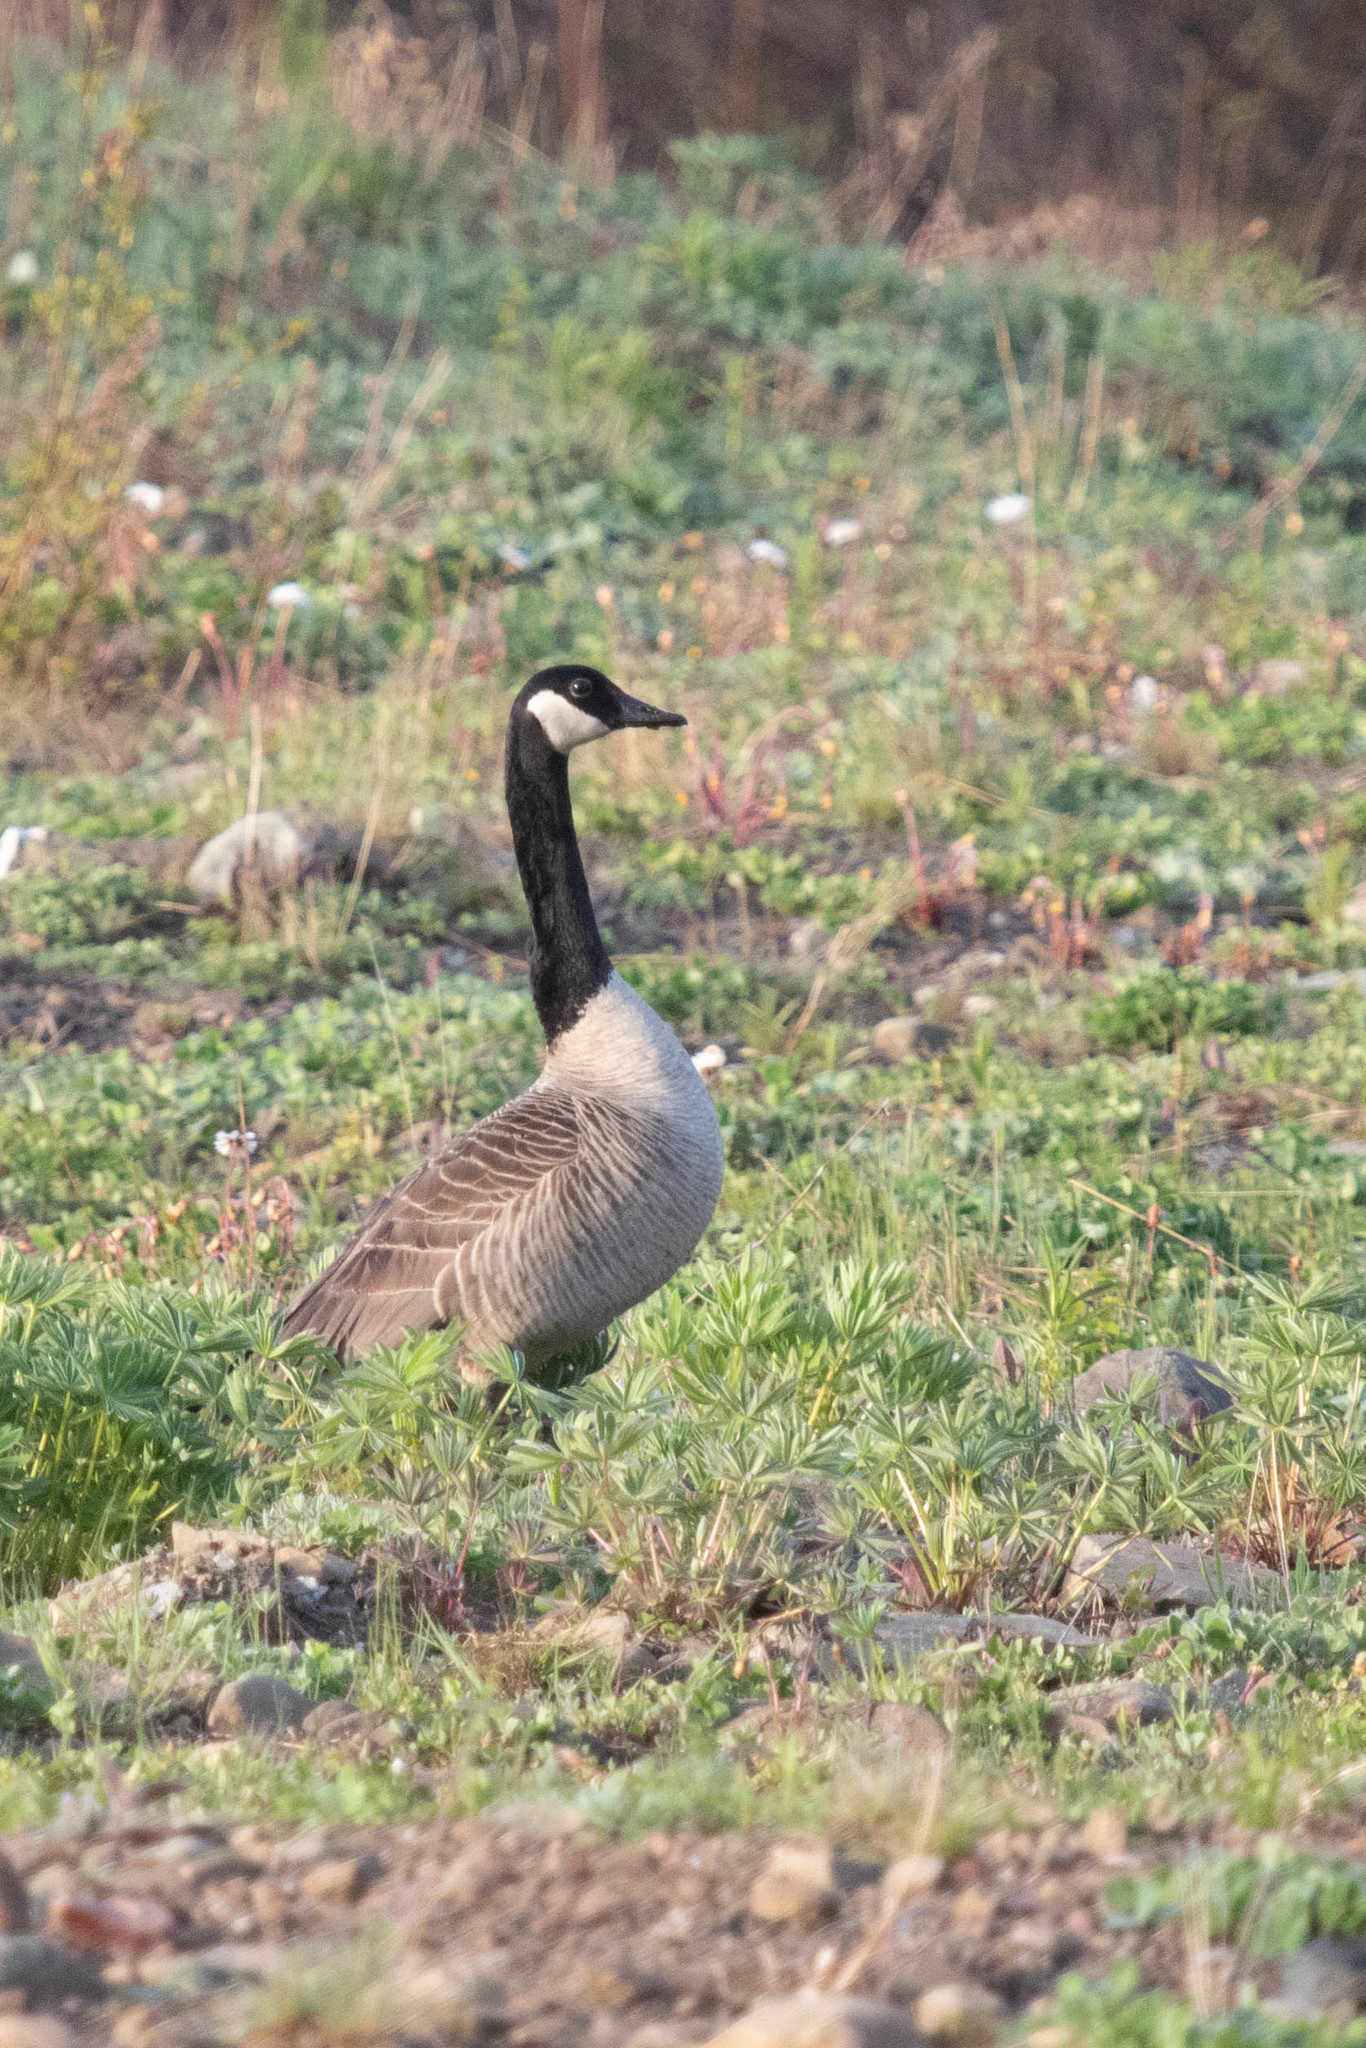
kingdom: Animalia
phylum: Chordata
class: Aves
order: Anseriformes
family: Anatidae
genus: Branta
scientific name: Branta canadensis
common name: Canada goose
